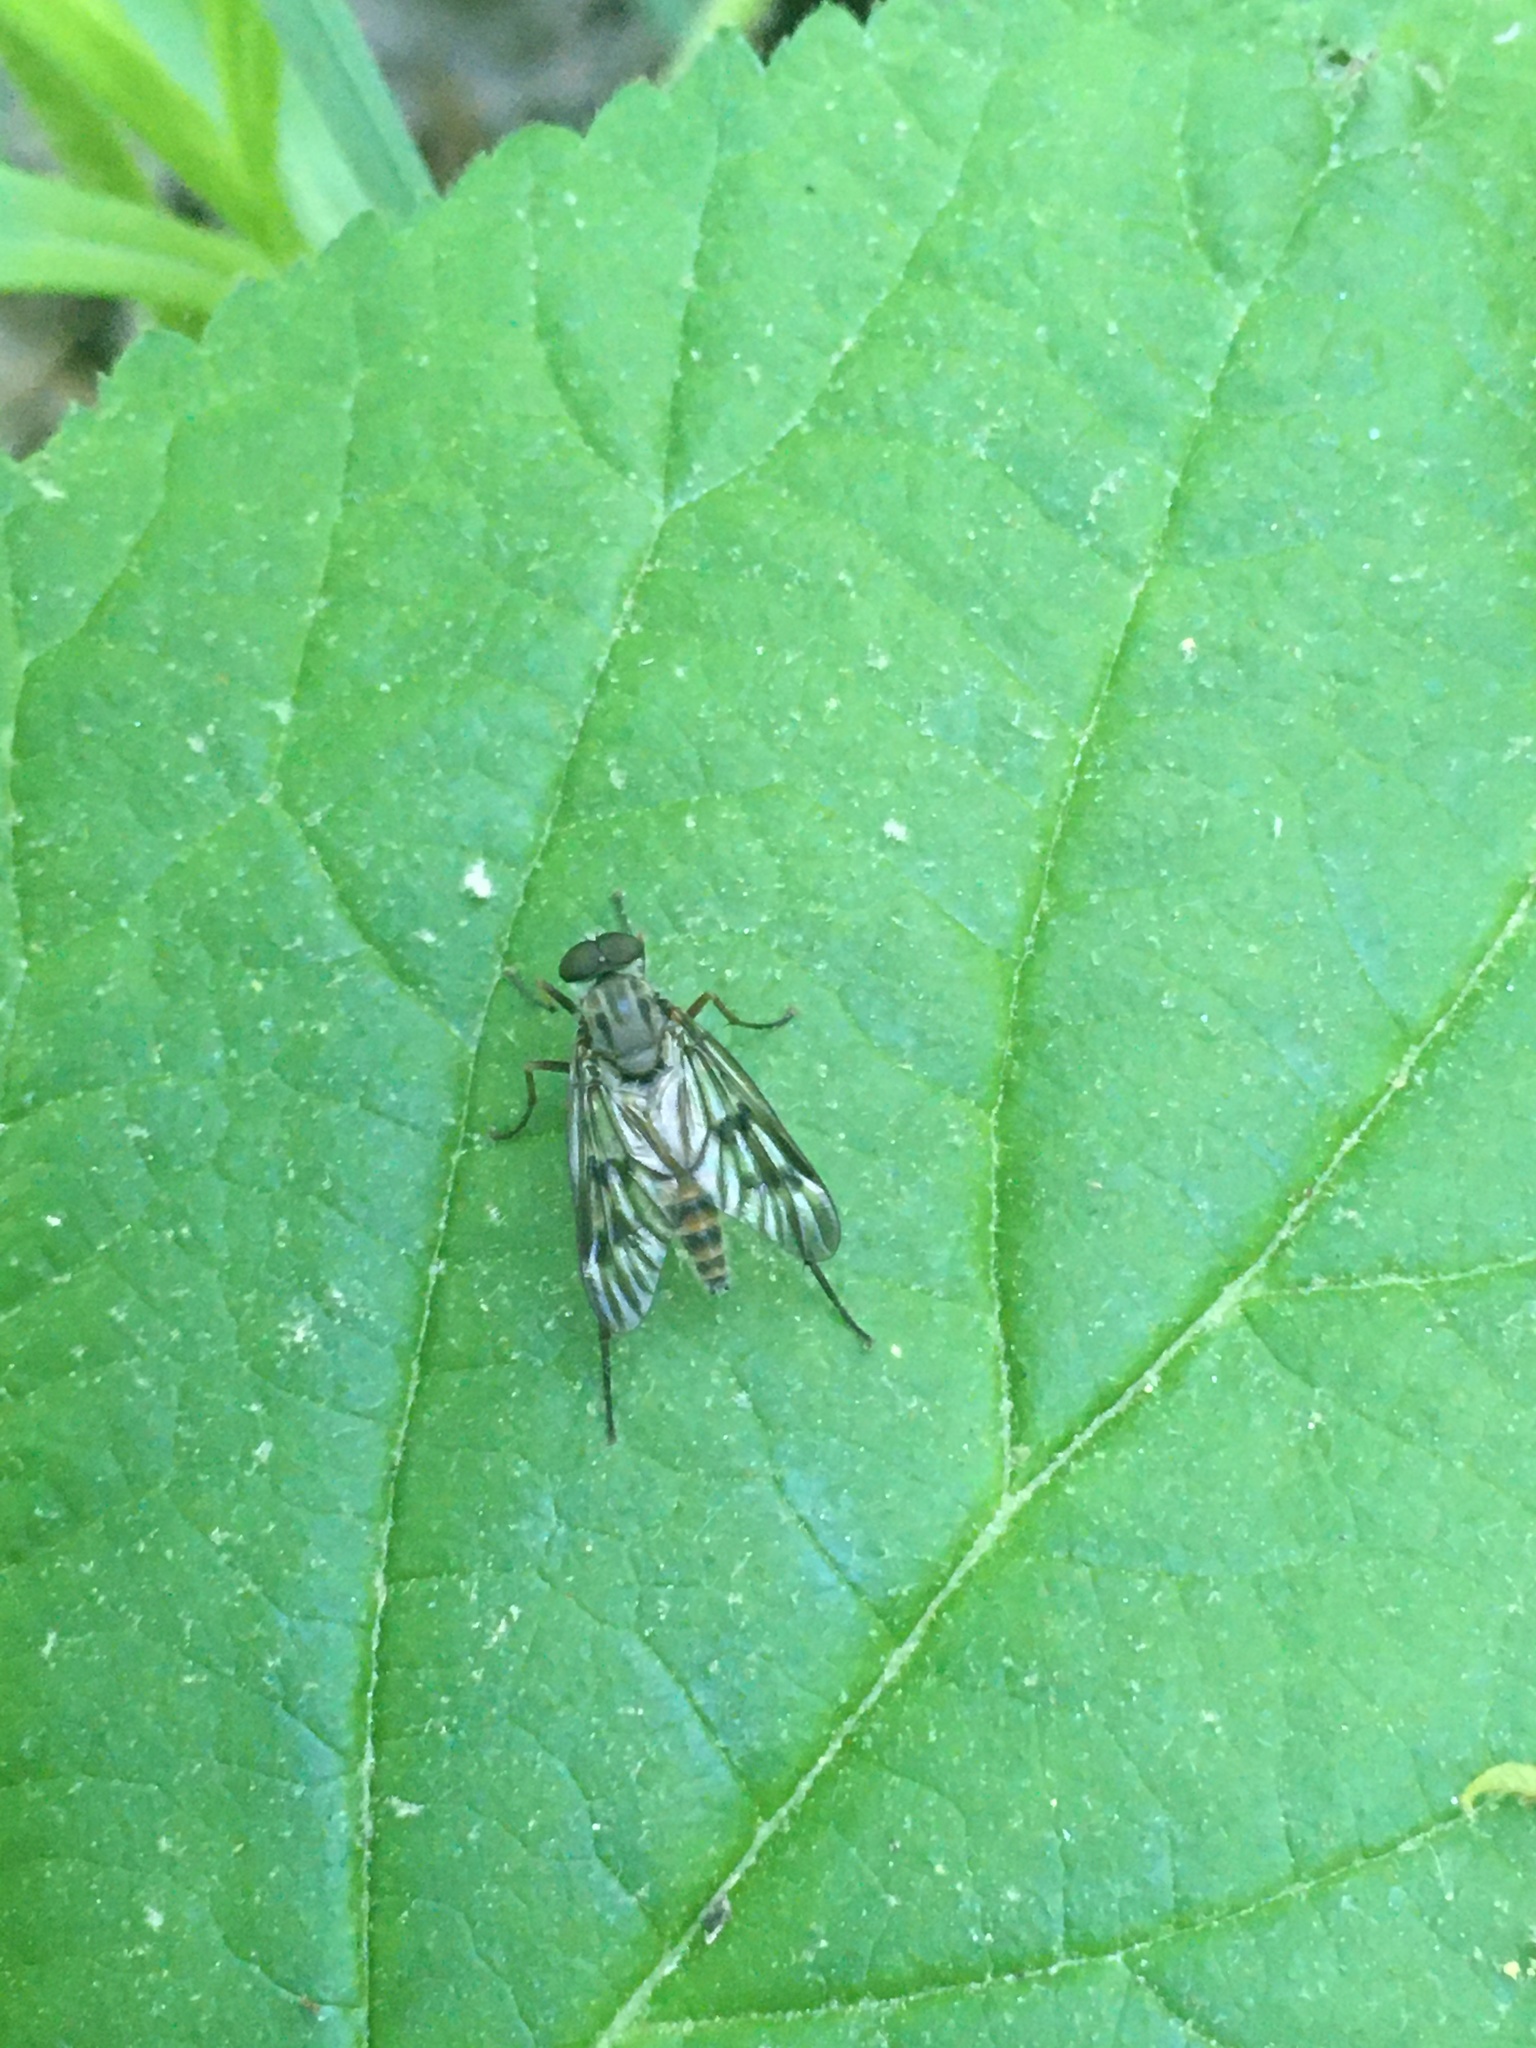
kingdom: Animalia
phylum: Arthropoda
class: Insecta
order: Diptera
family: Rhagionidae
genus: Rhagio
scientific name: Rhagio mystaceus
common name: Common snipe fly
